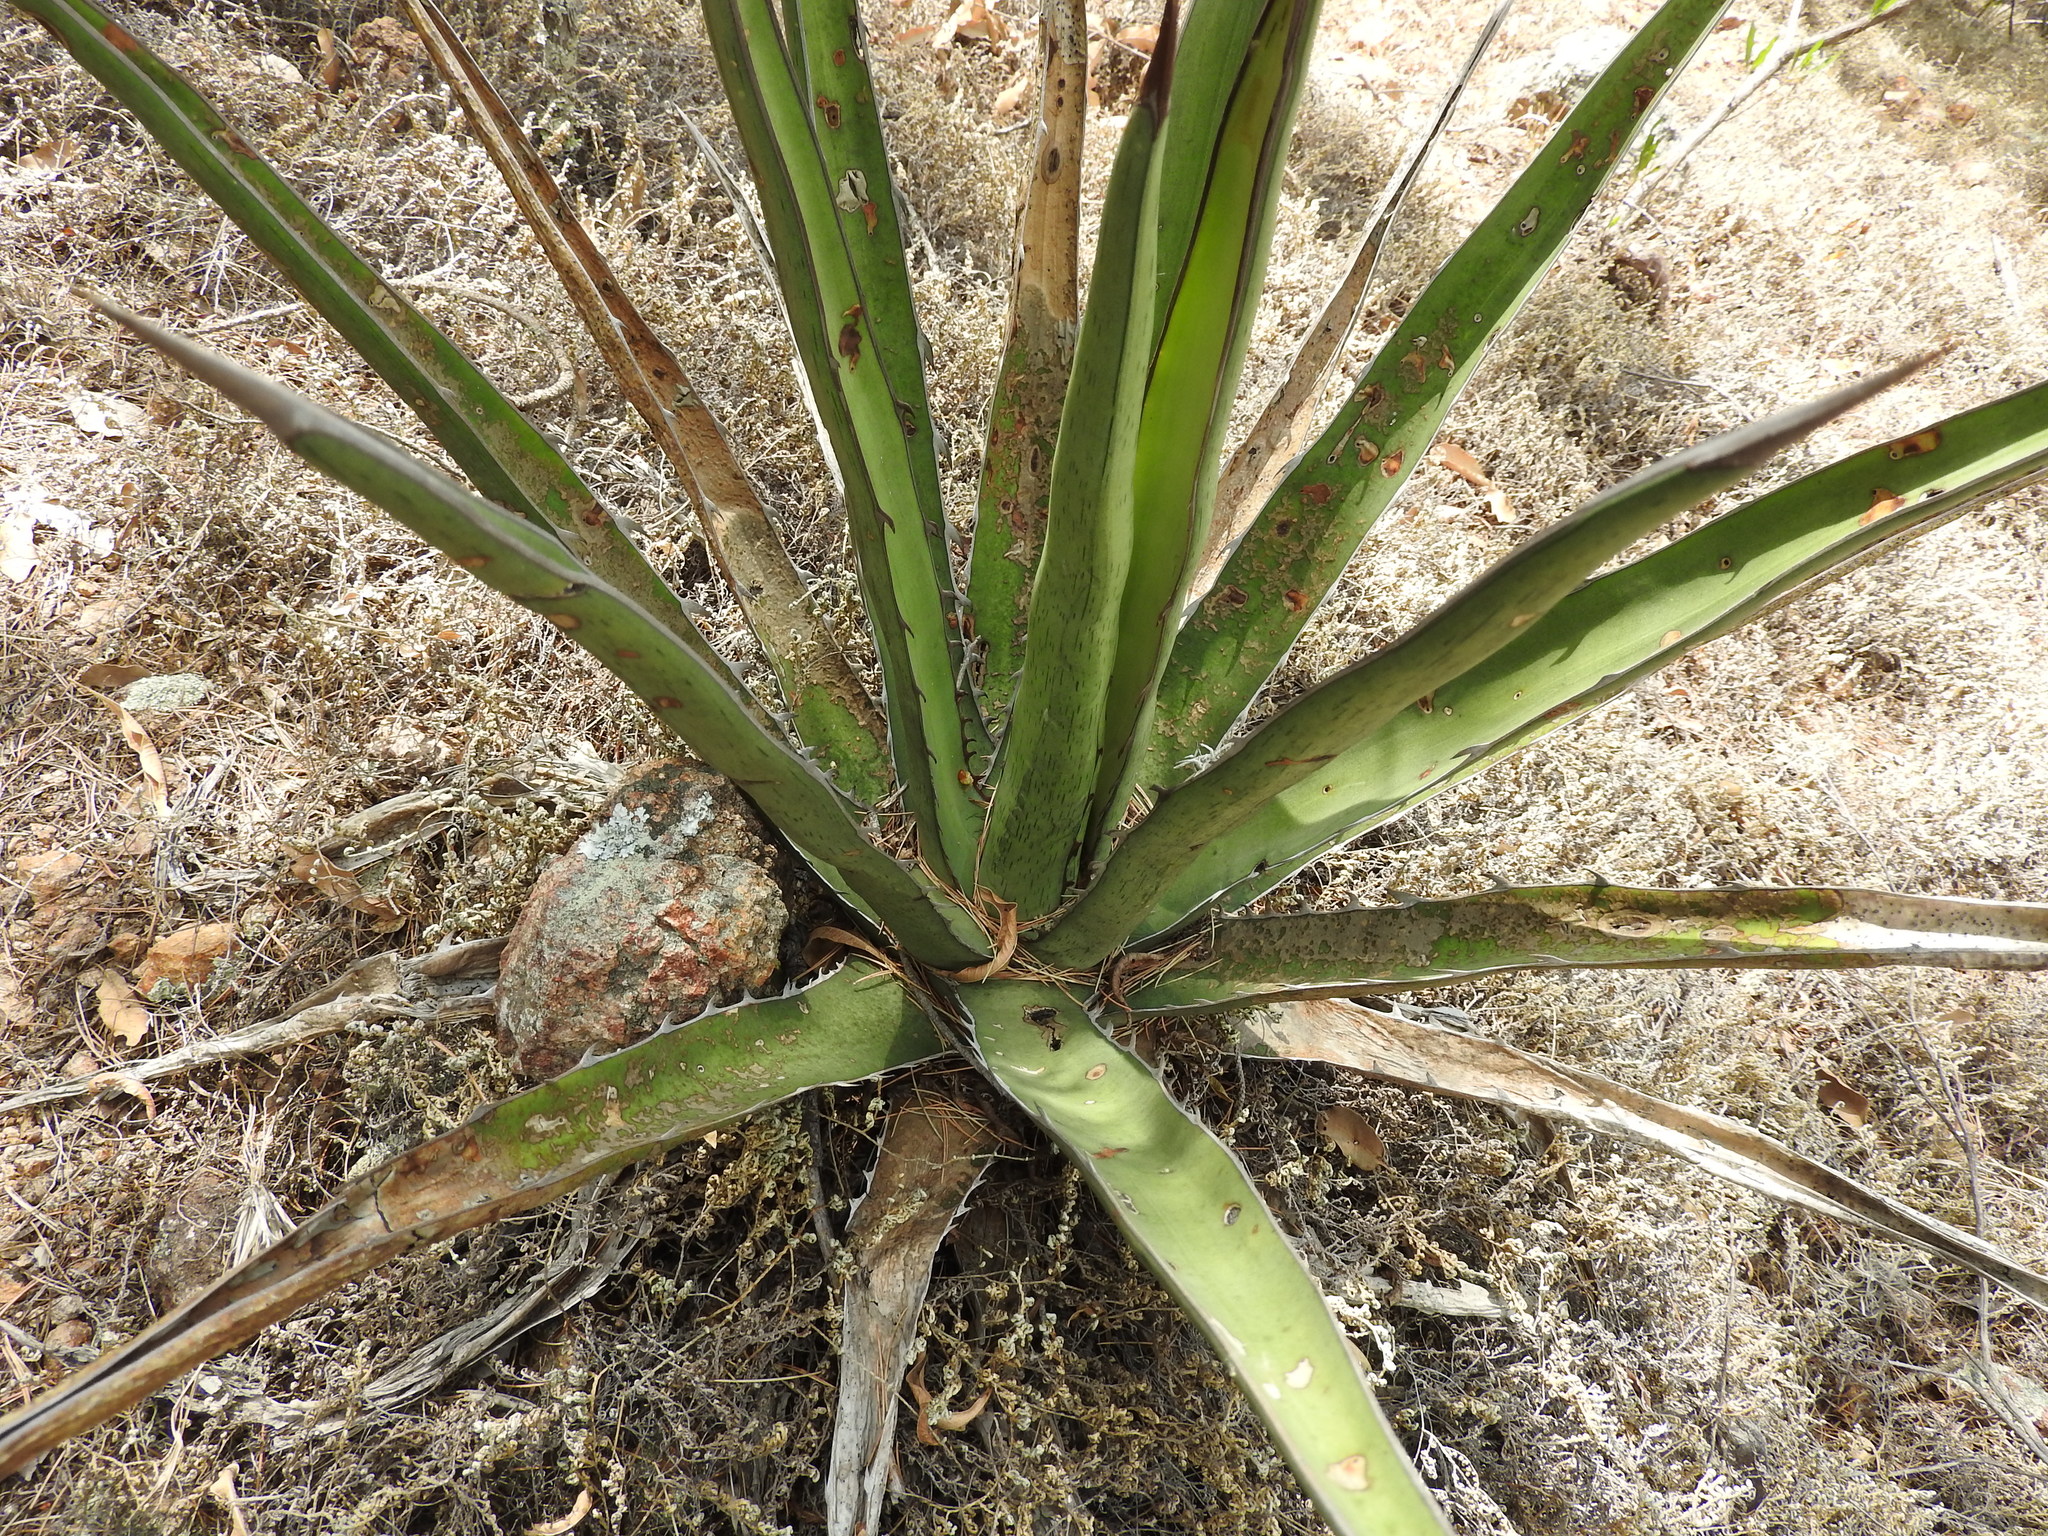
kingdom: Plantae
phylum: Tracheophyta
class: Liliopsida
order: Asparagales
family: Asparagaceae
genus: Agave
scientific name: Agave albomarginata
